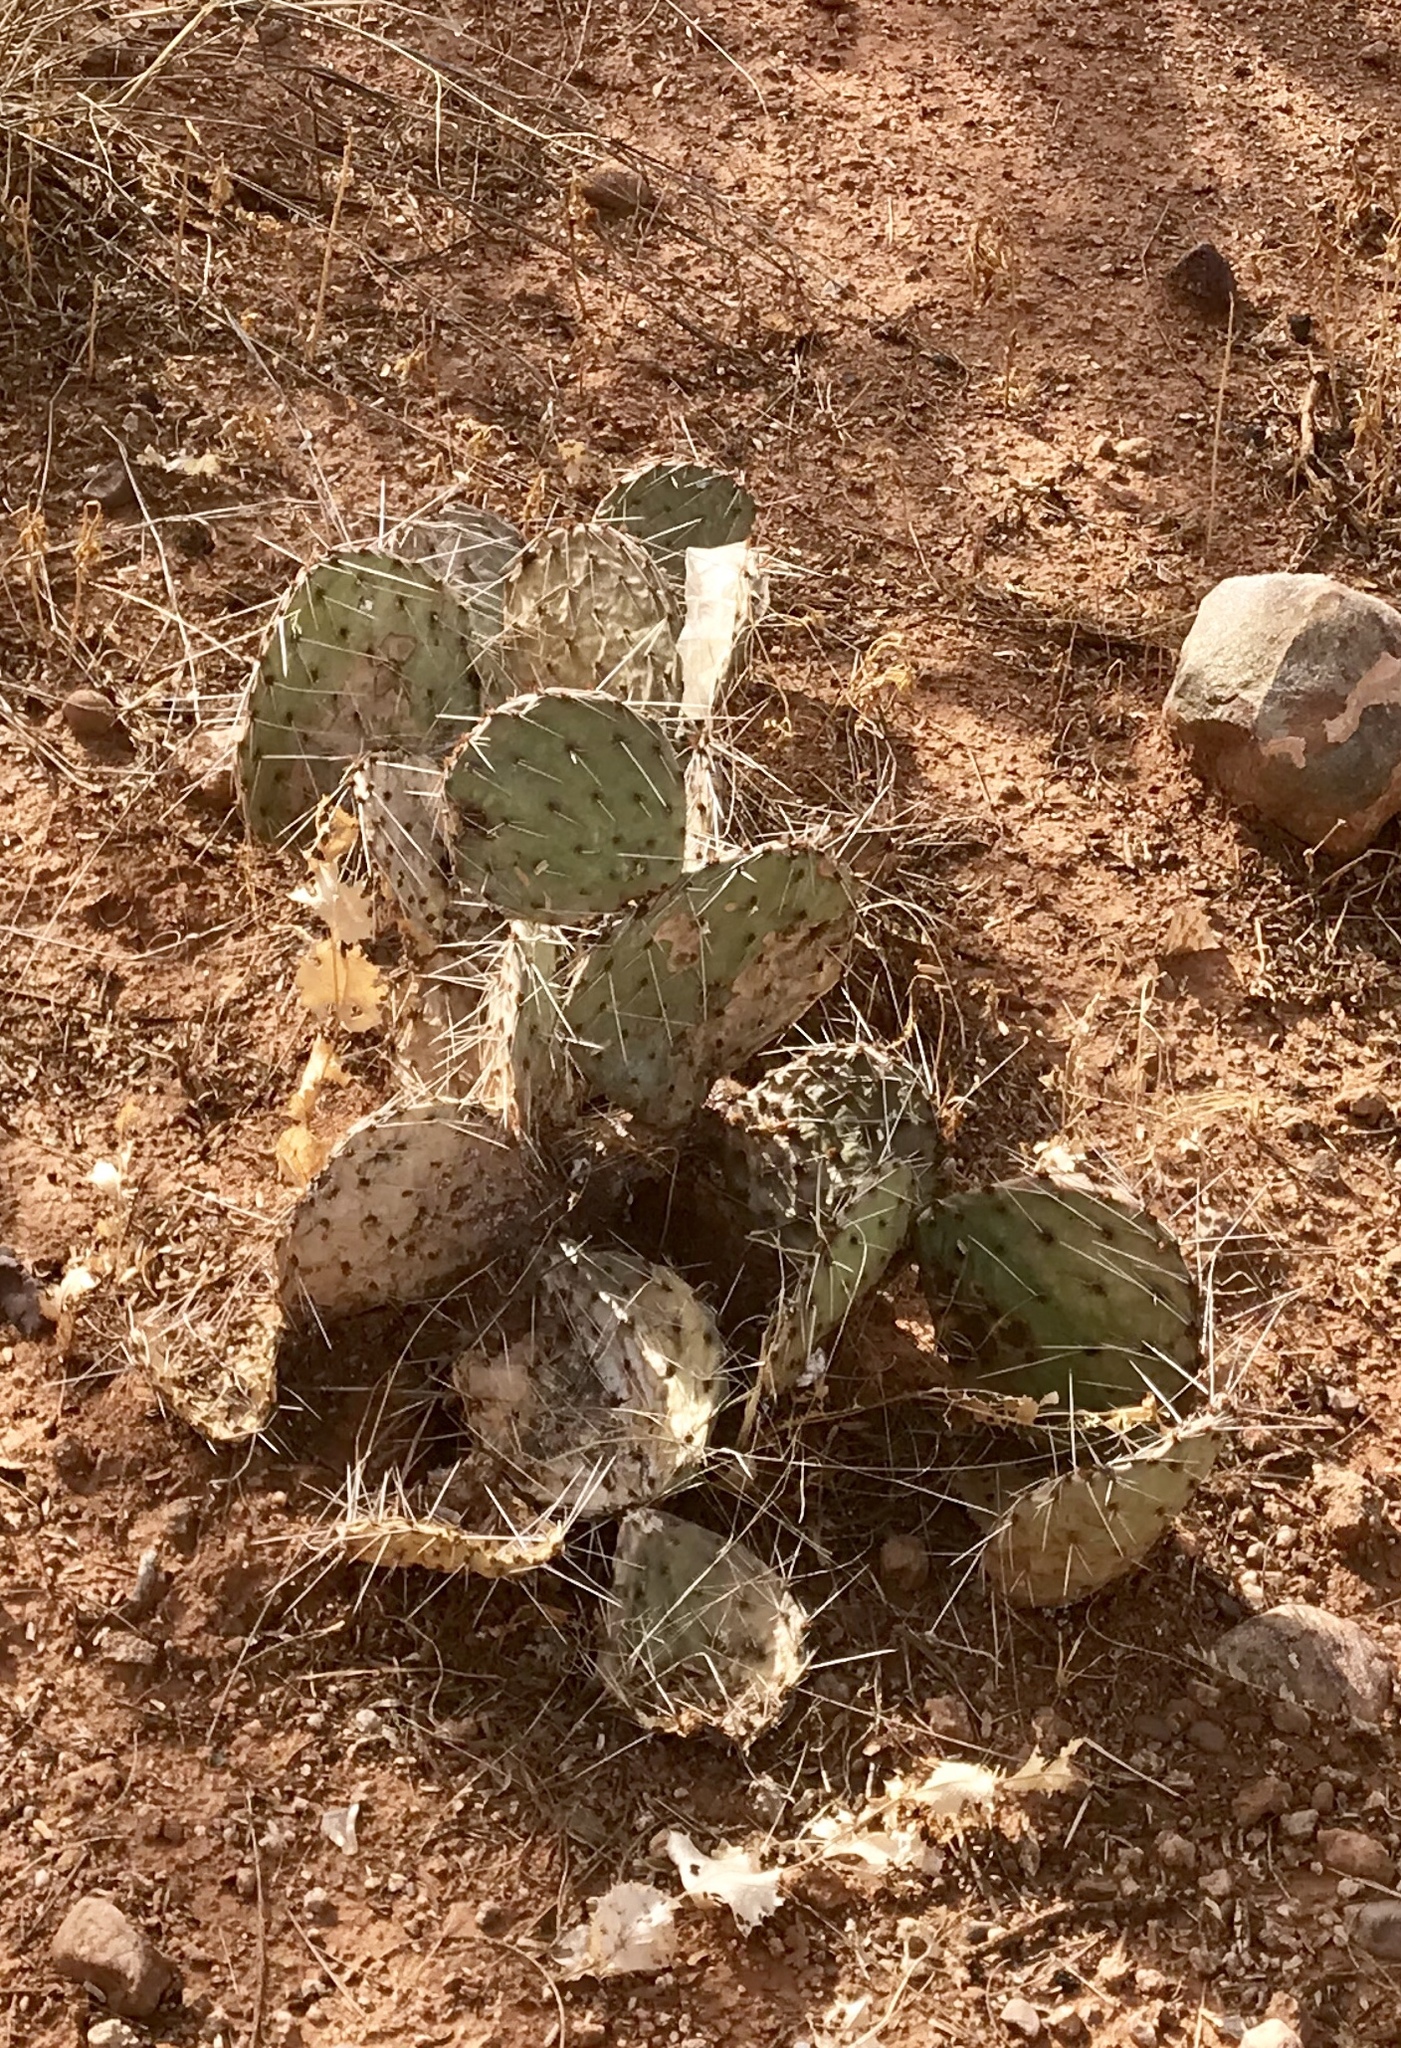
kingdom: Plantae
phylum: Tracheophyta
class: Magnoliopsida
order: Caryophyllales
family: Cactaceae
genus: Opuntia
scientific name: Opuntia phaeacantha
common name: New mexico prickly-pear
